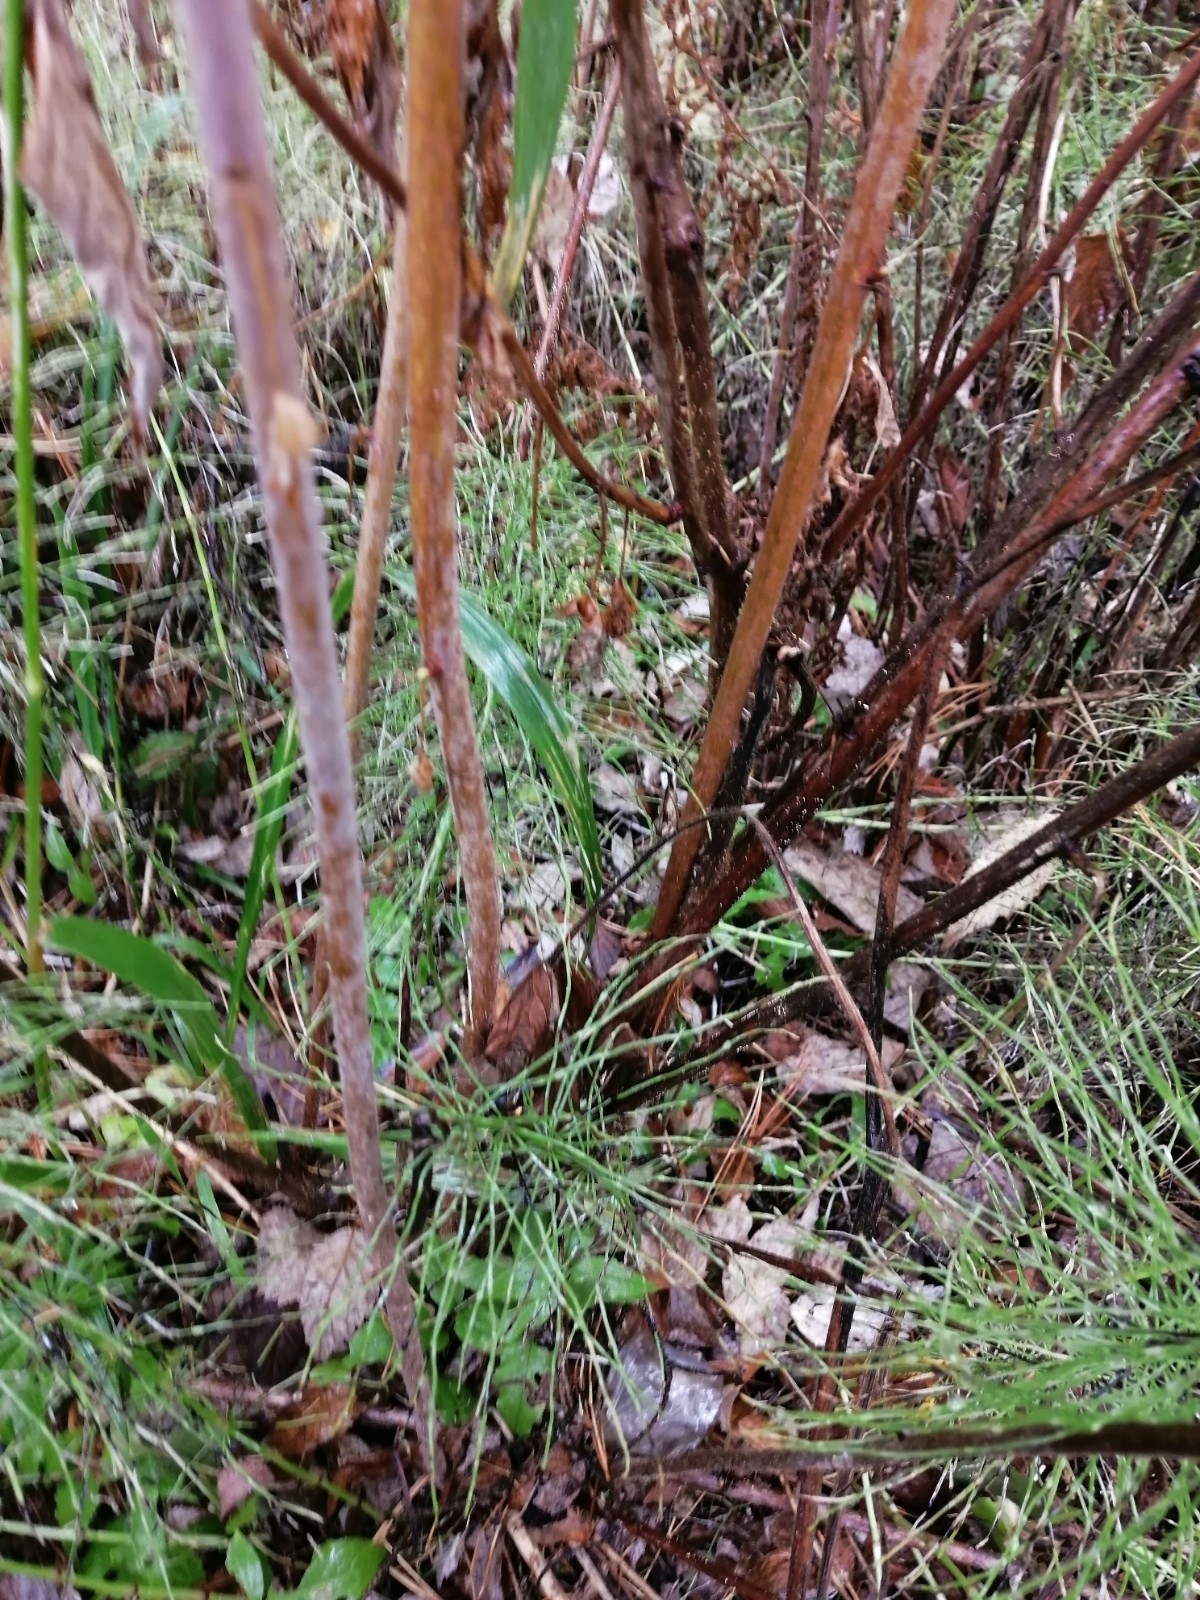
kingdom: Plantae
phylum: Tracheophyta
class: Magnoliopsida
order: Rosales
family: Rosaceae
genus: Rubus
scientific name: Rubus idaeus
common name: Raspberry
